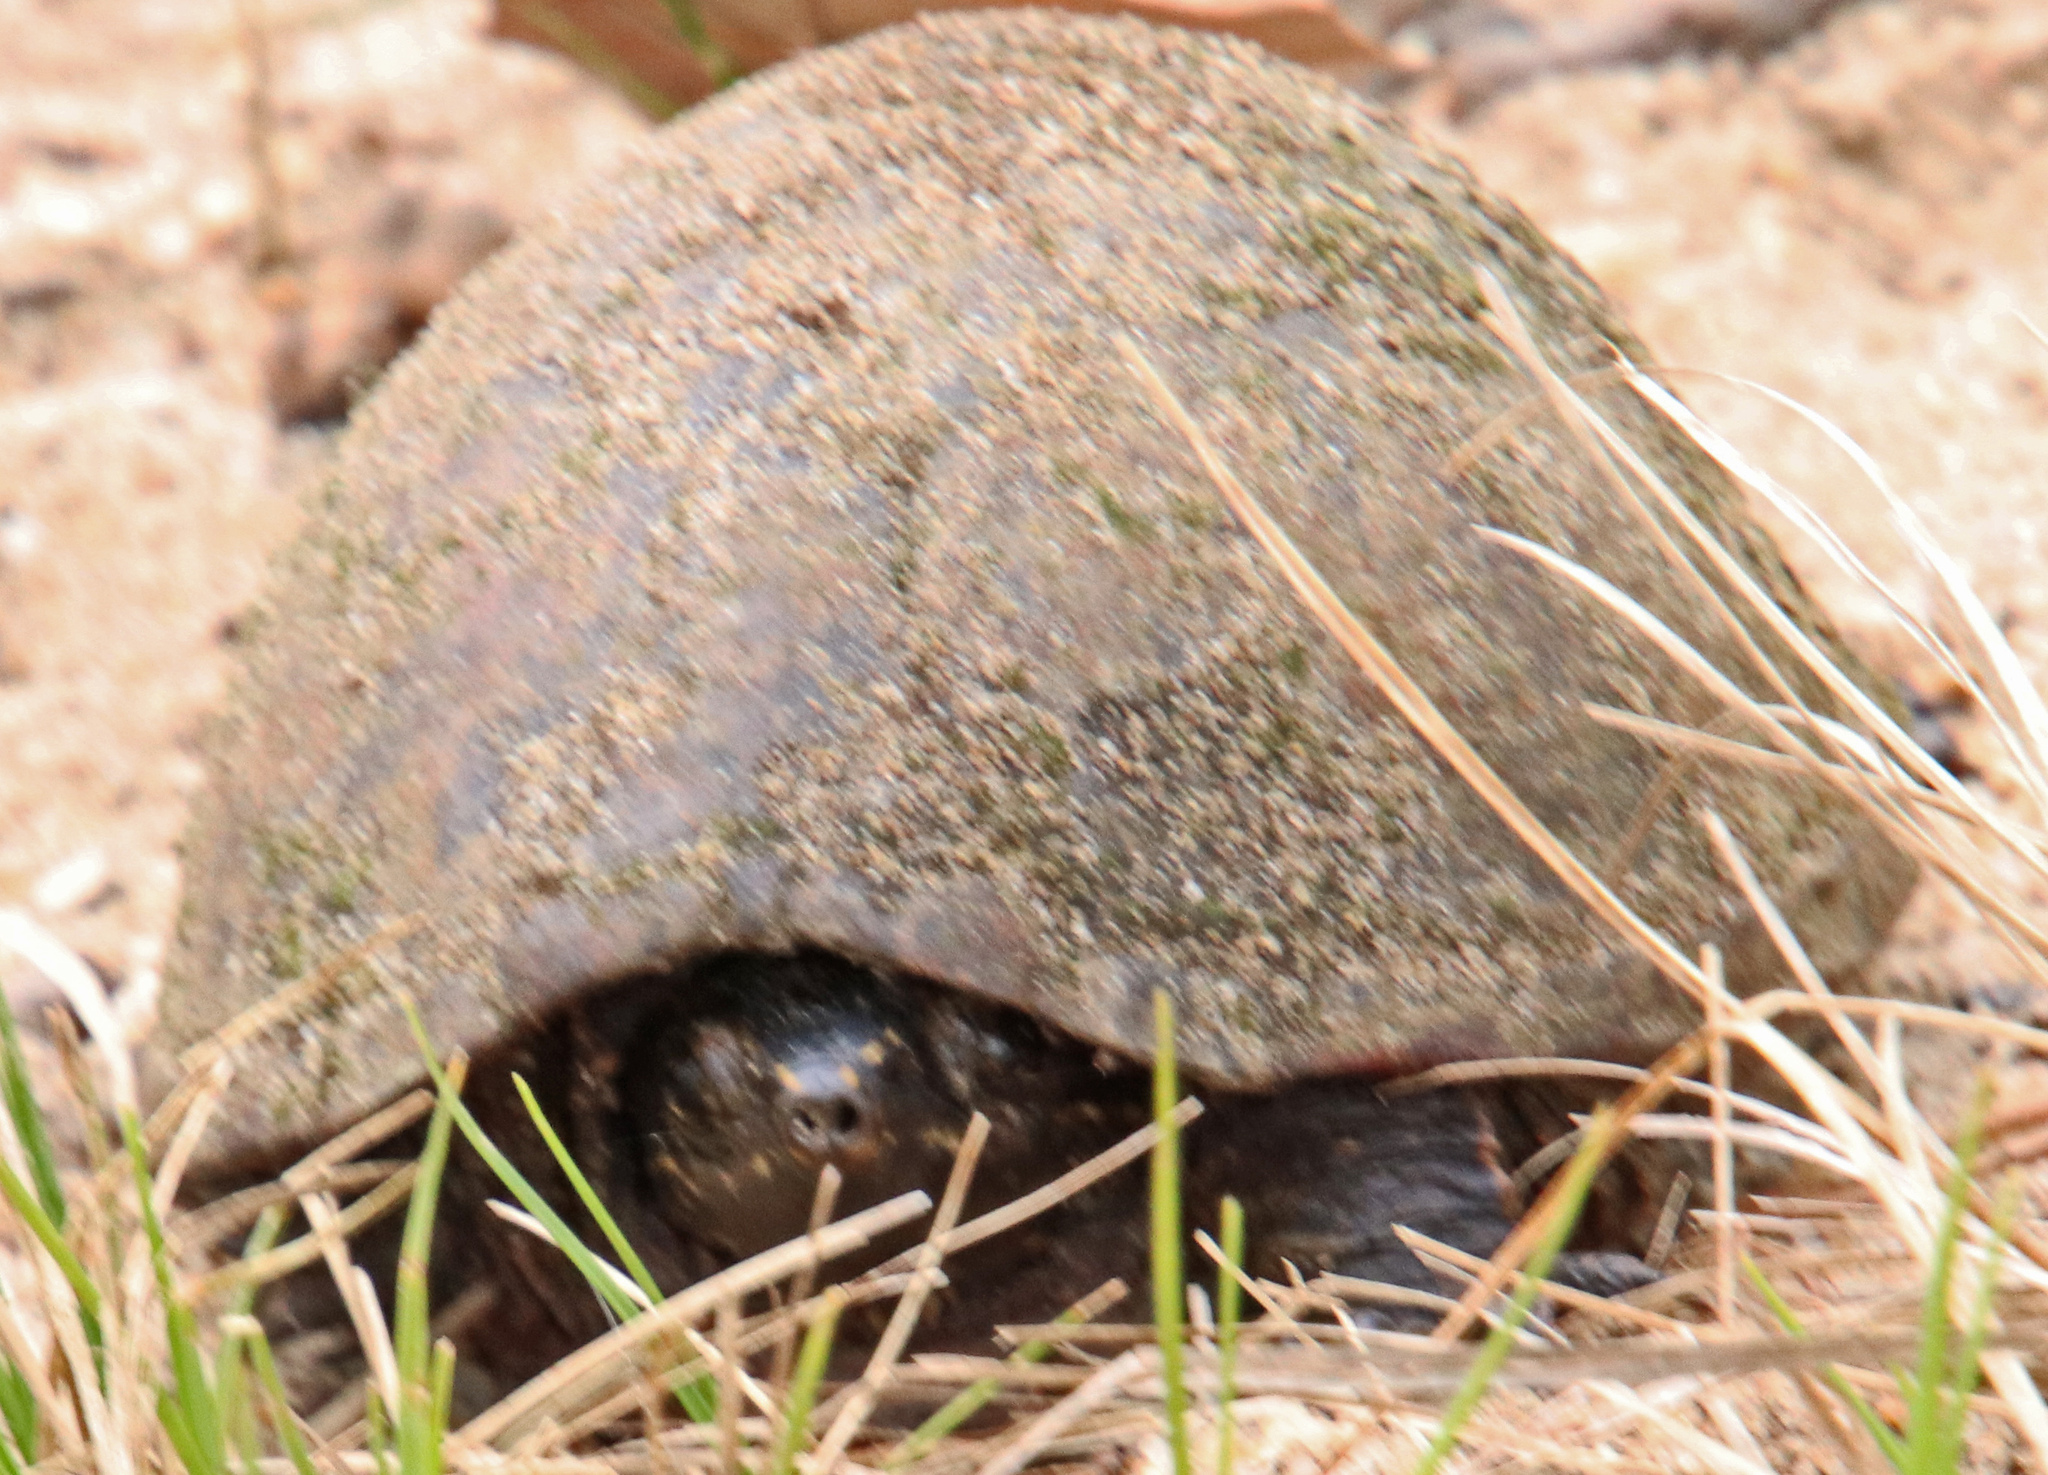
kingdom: Animalia
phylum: Chordata
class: Testudines
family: Kinosternidae
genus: Kinosternon
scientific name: Kinosternon subrubrum
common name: Eastern mud turtle
